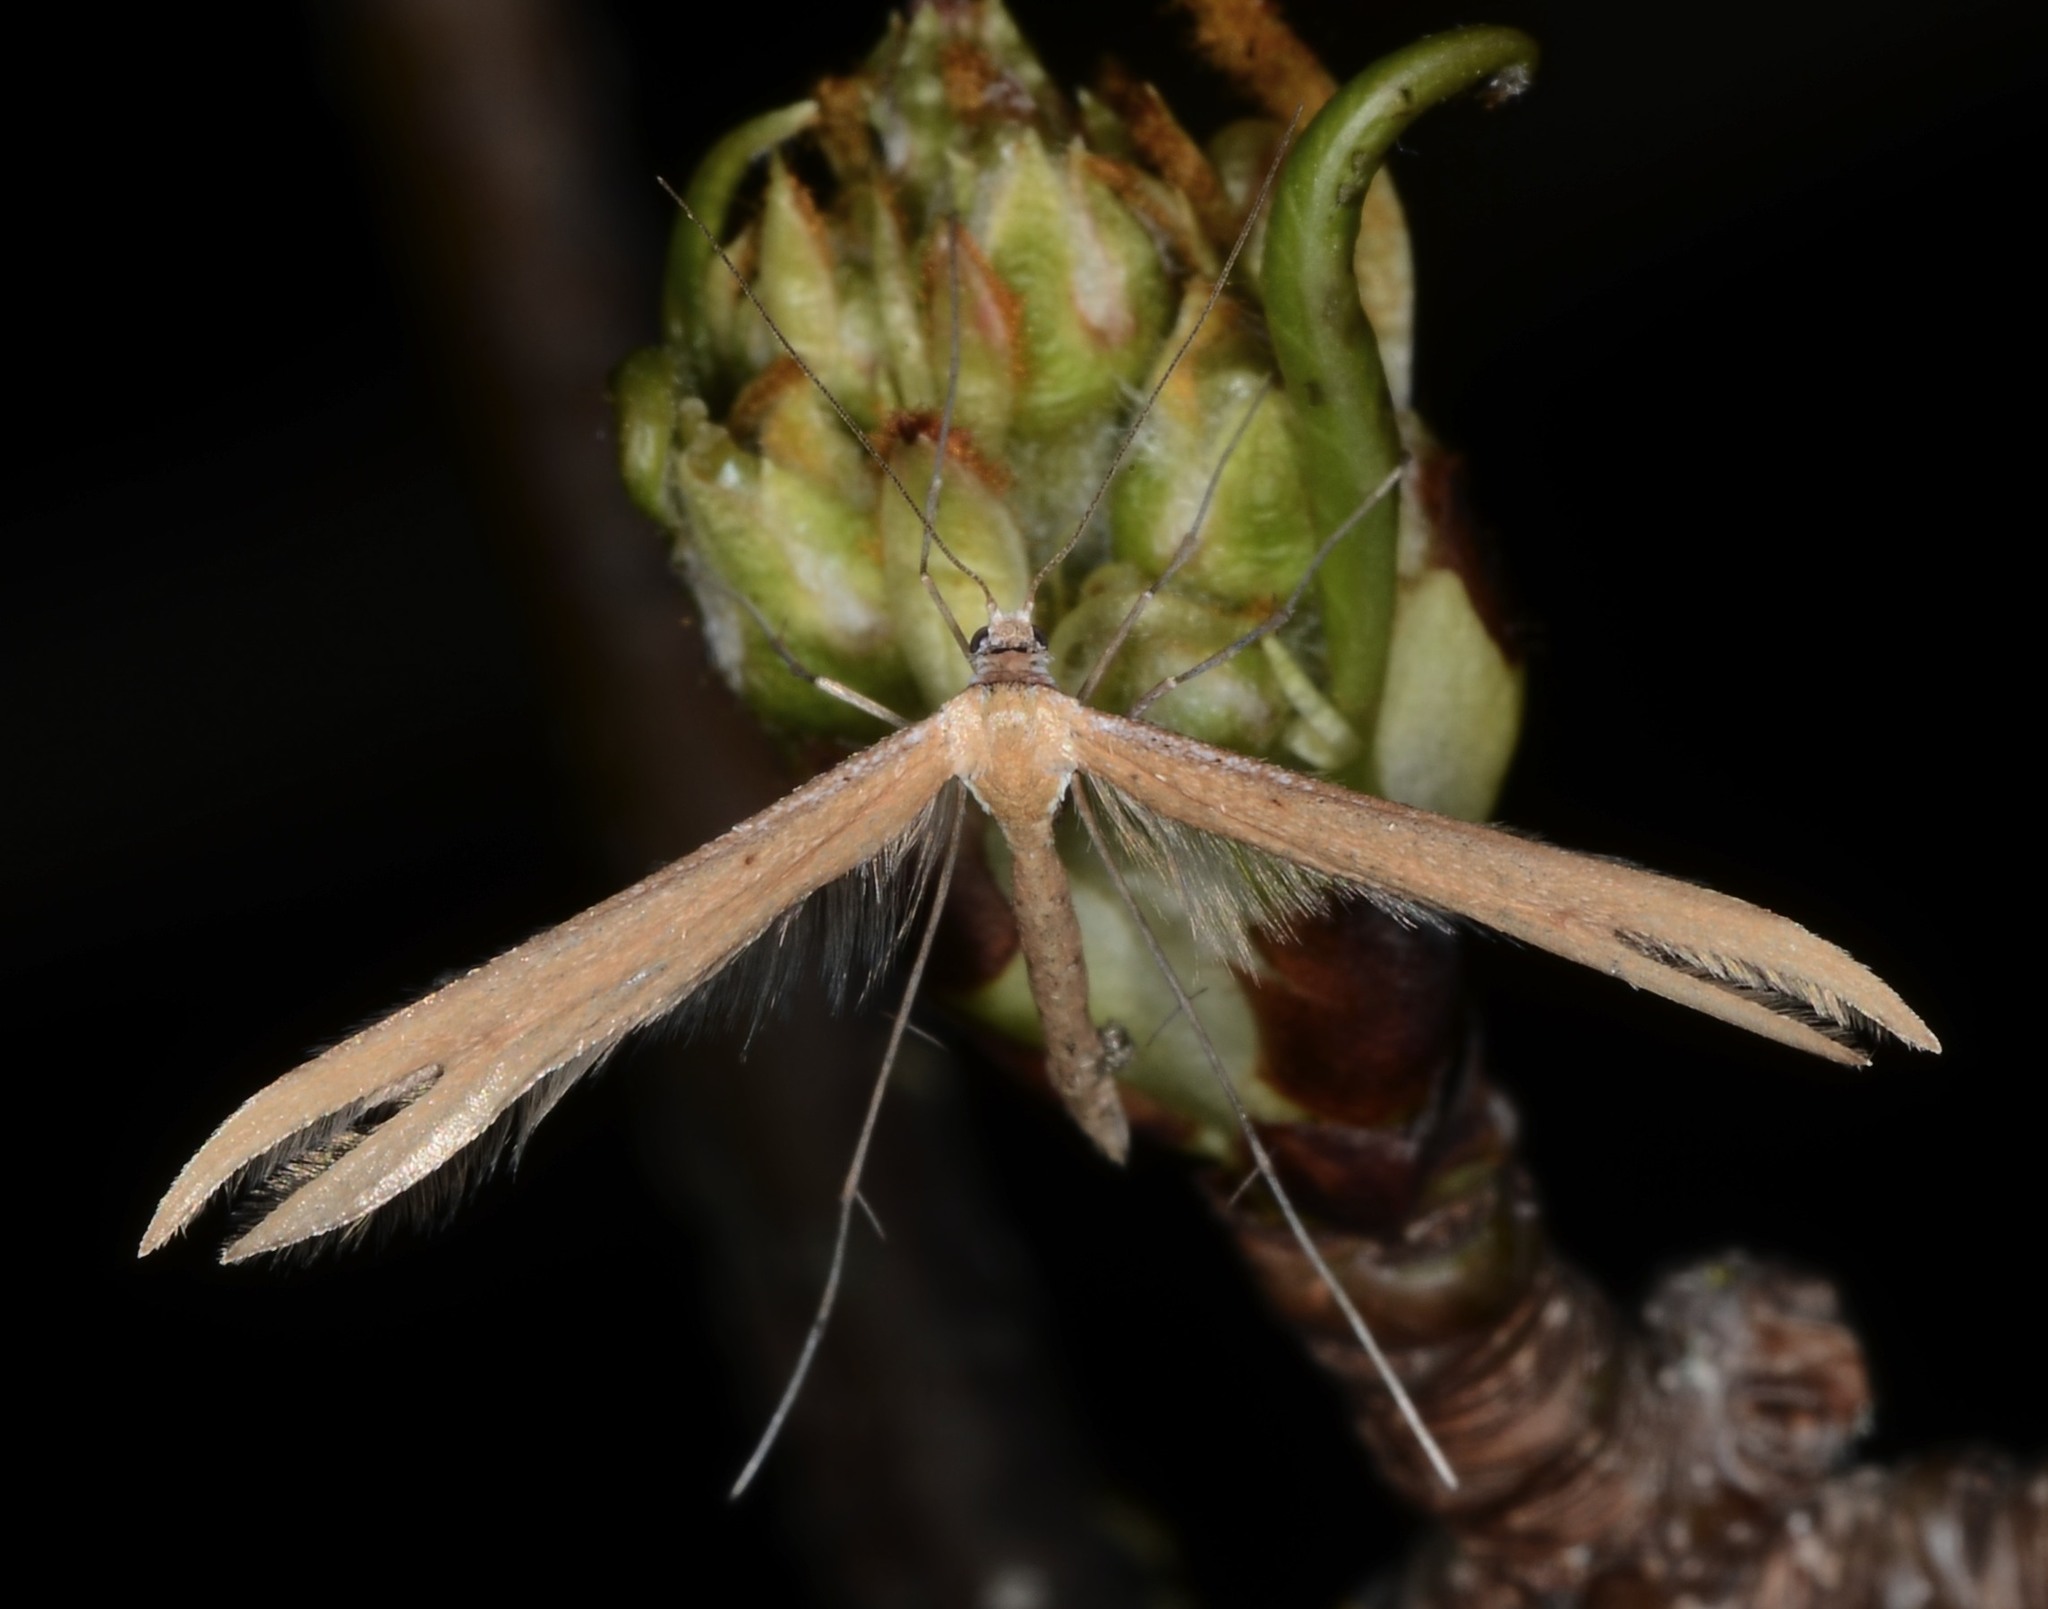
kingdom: Animalia
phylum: Arthropoda
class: Insecta
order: Lepidoptera
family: Pterophoridae
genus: Emmelina
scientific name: Emmelina monodactyla
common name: Common plume
